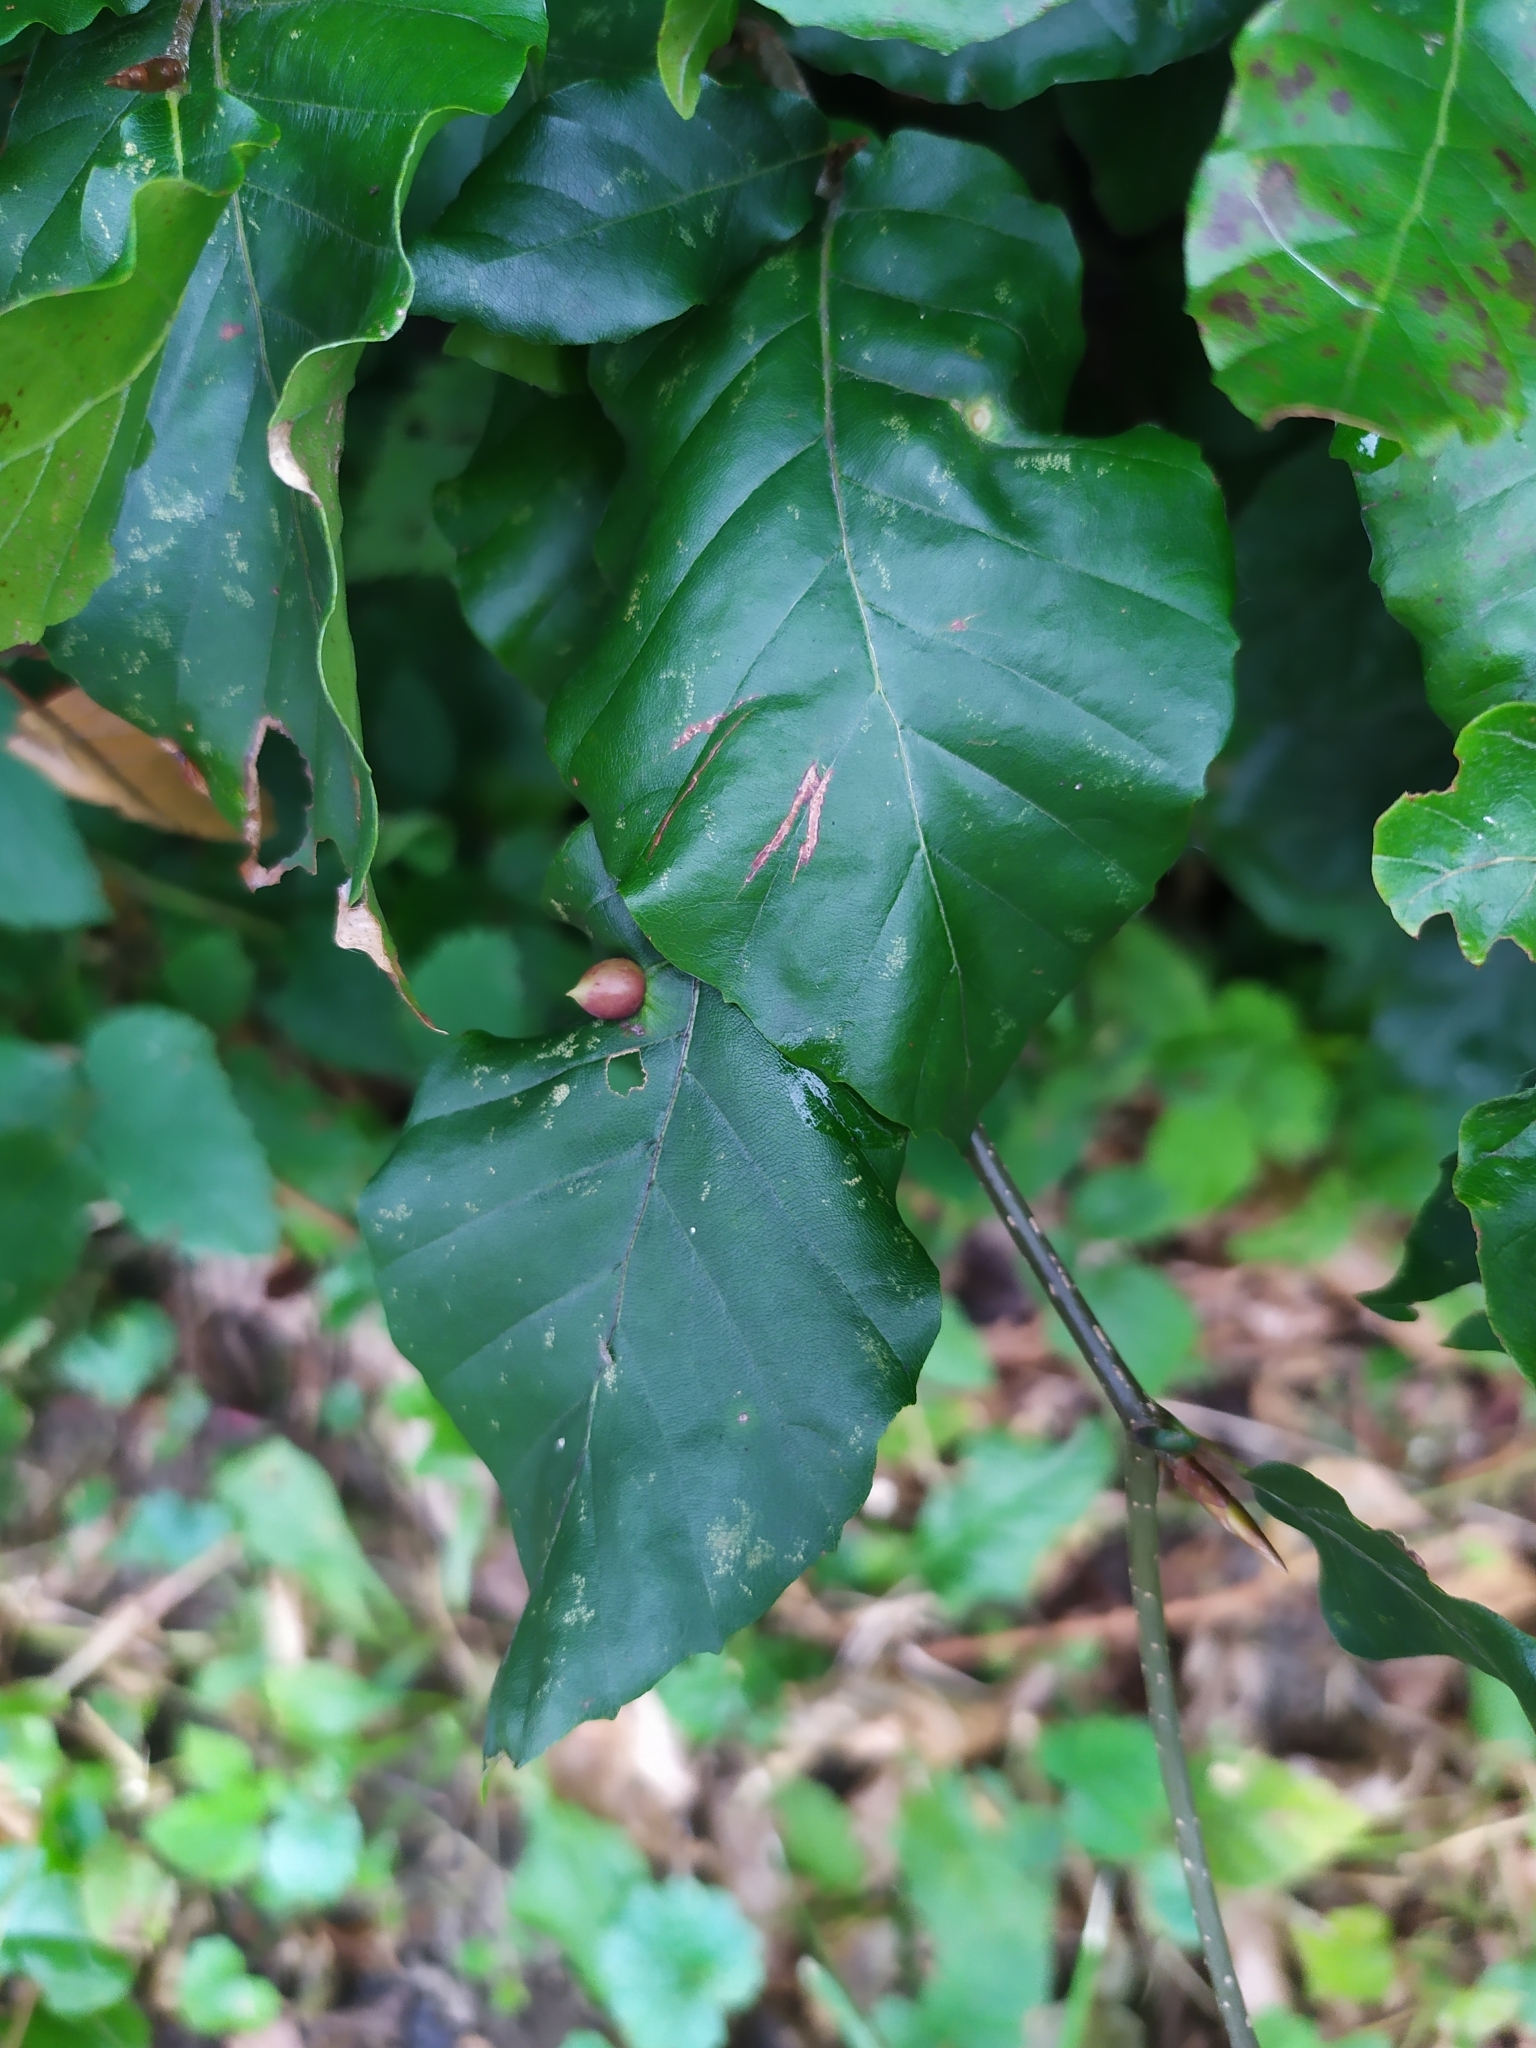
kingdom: Animalia
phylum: Arthropoda
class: Insecta
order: Diptera
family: Cecidomyiidae
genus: Mikiola
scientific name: Mikiola fagi
